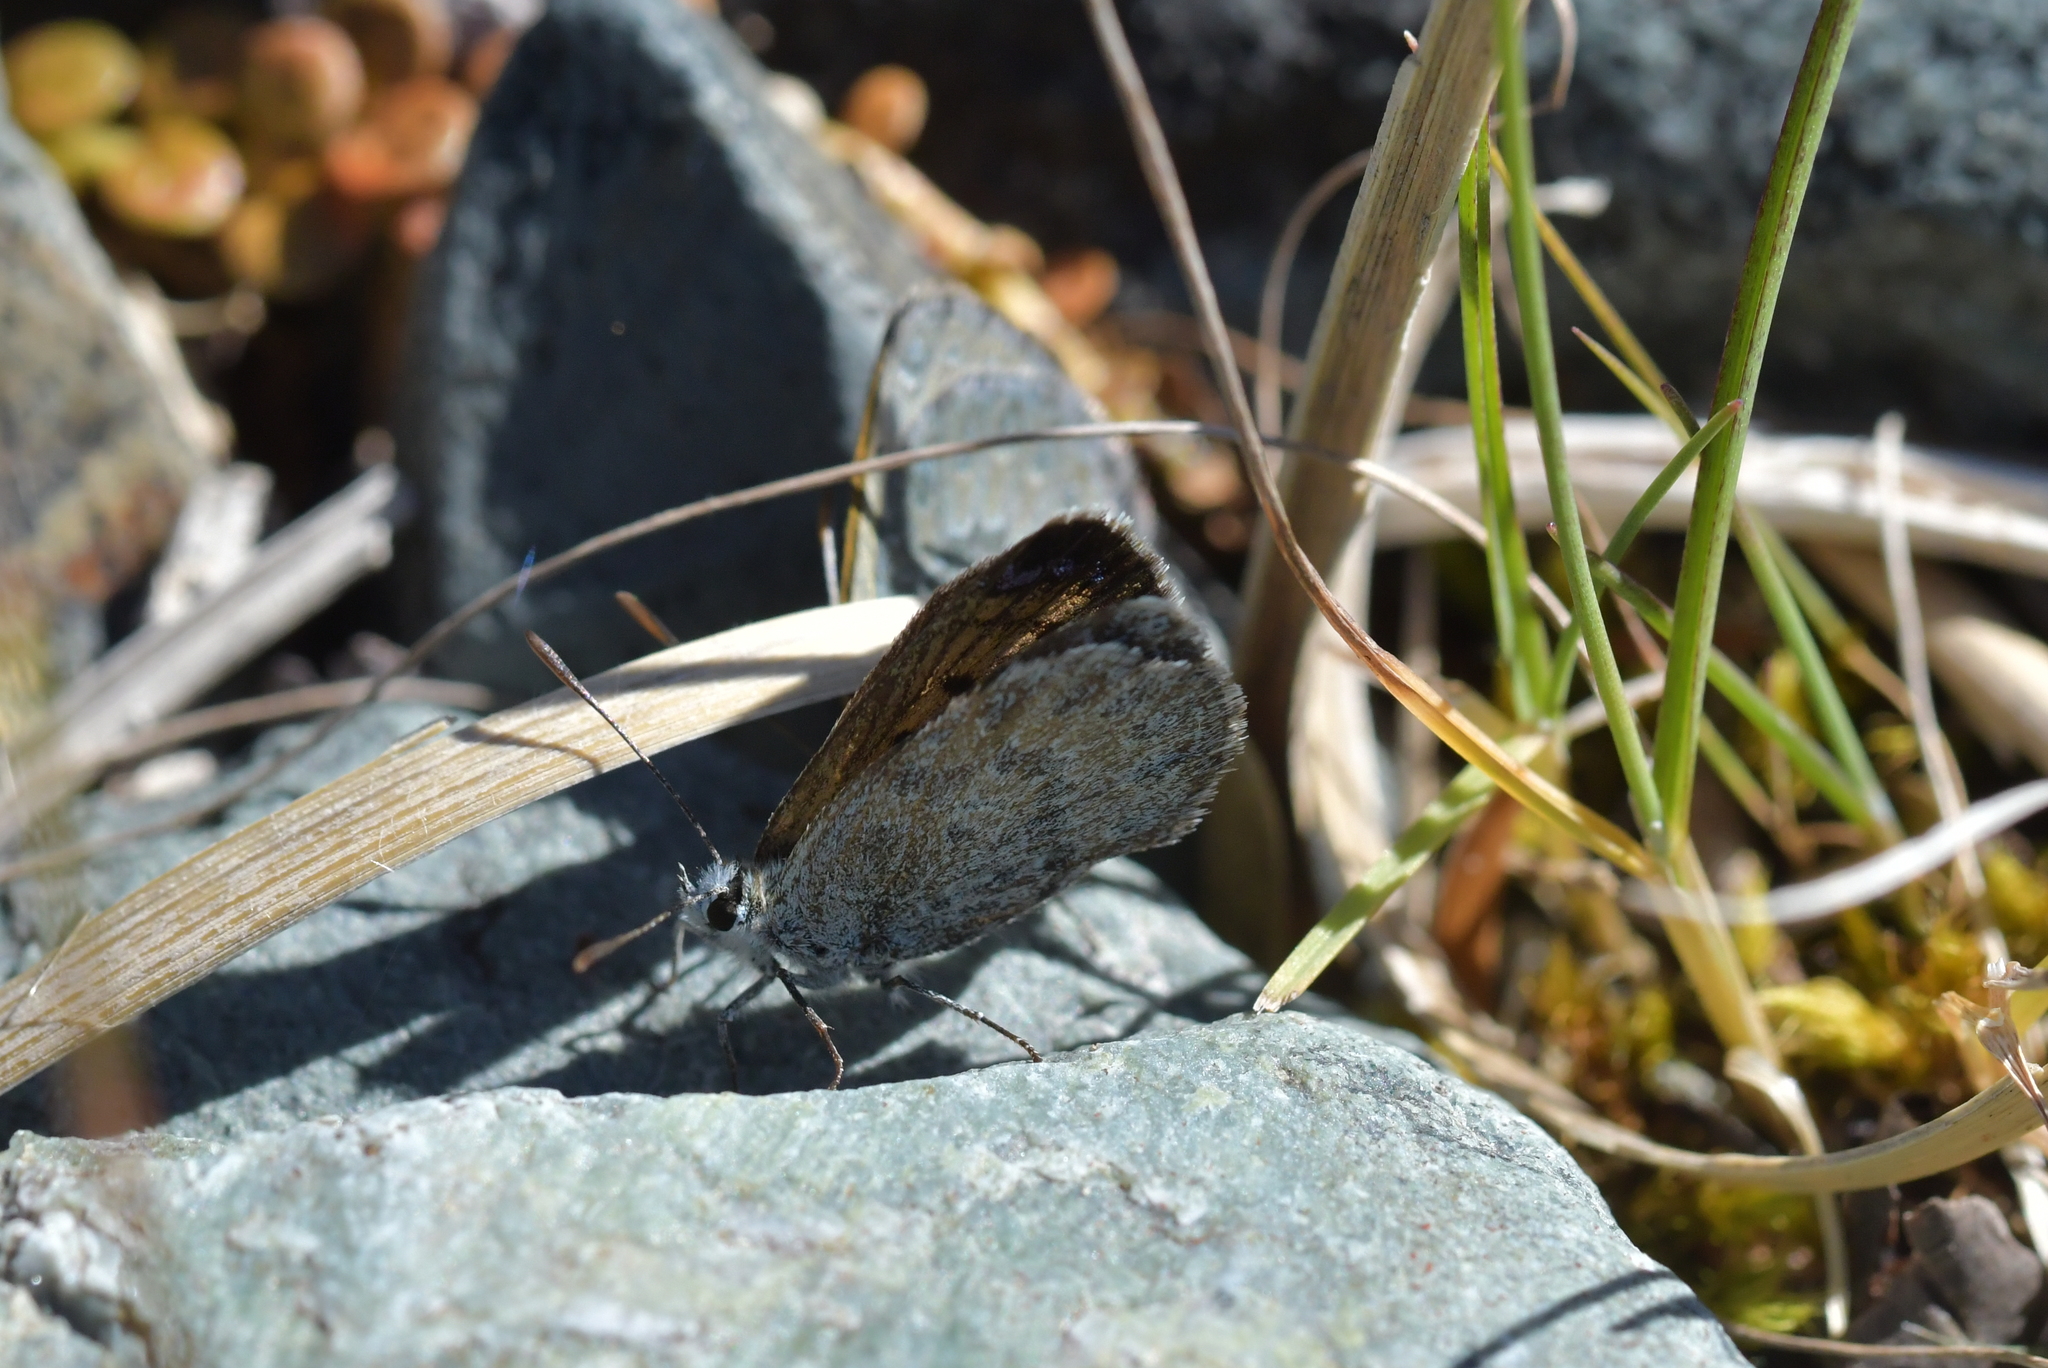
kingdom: Animalia
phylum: Arthropoda
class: Insecta
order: Lepidoptera
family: Lycaenidae
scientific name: Lycaenidae
